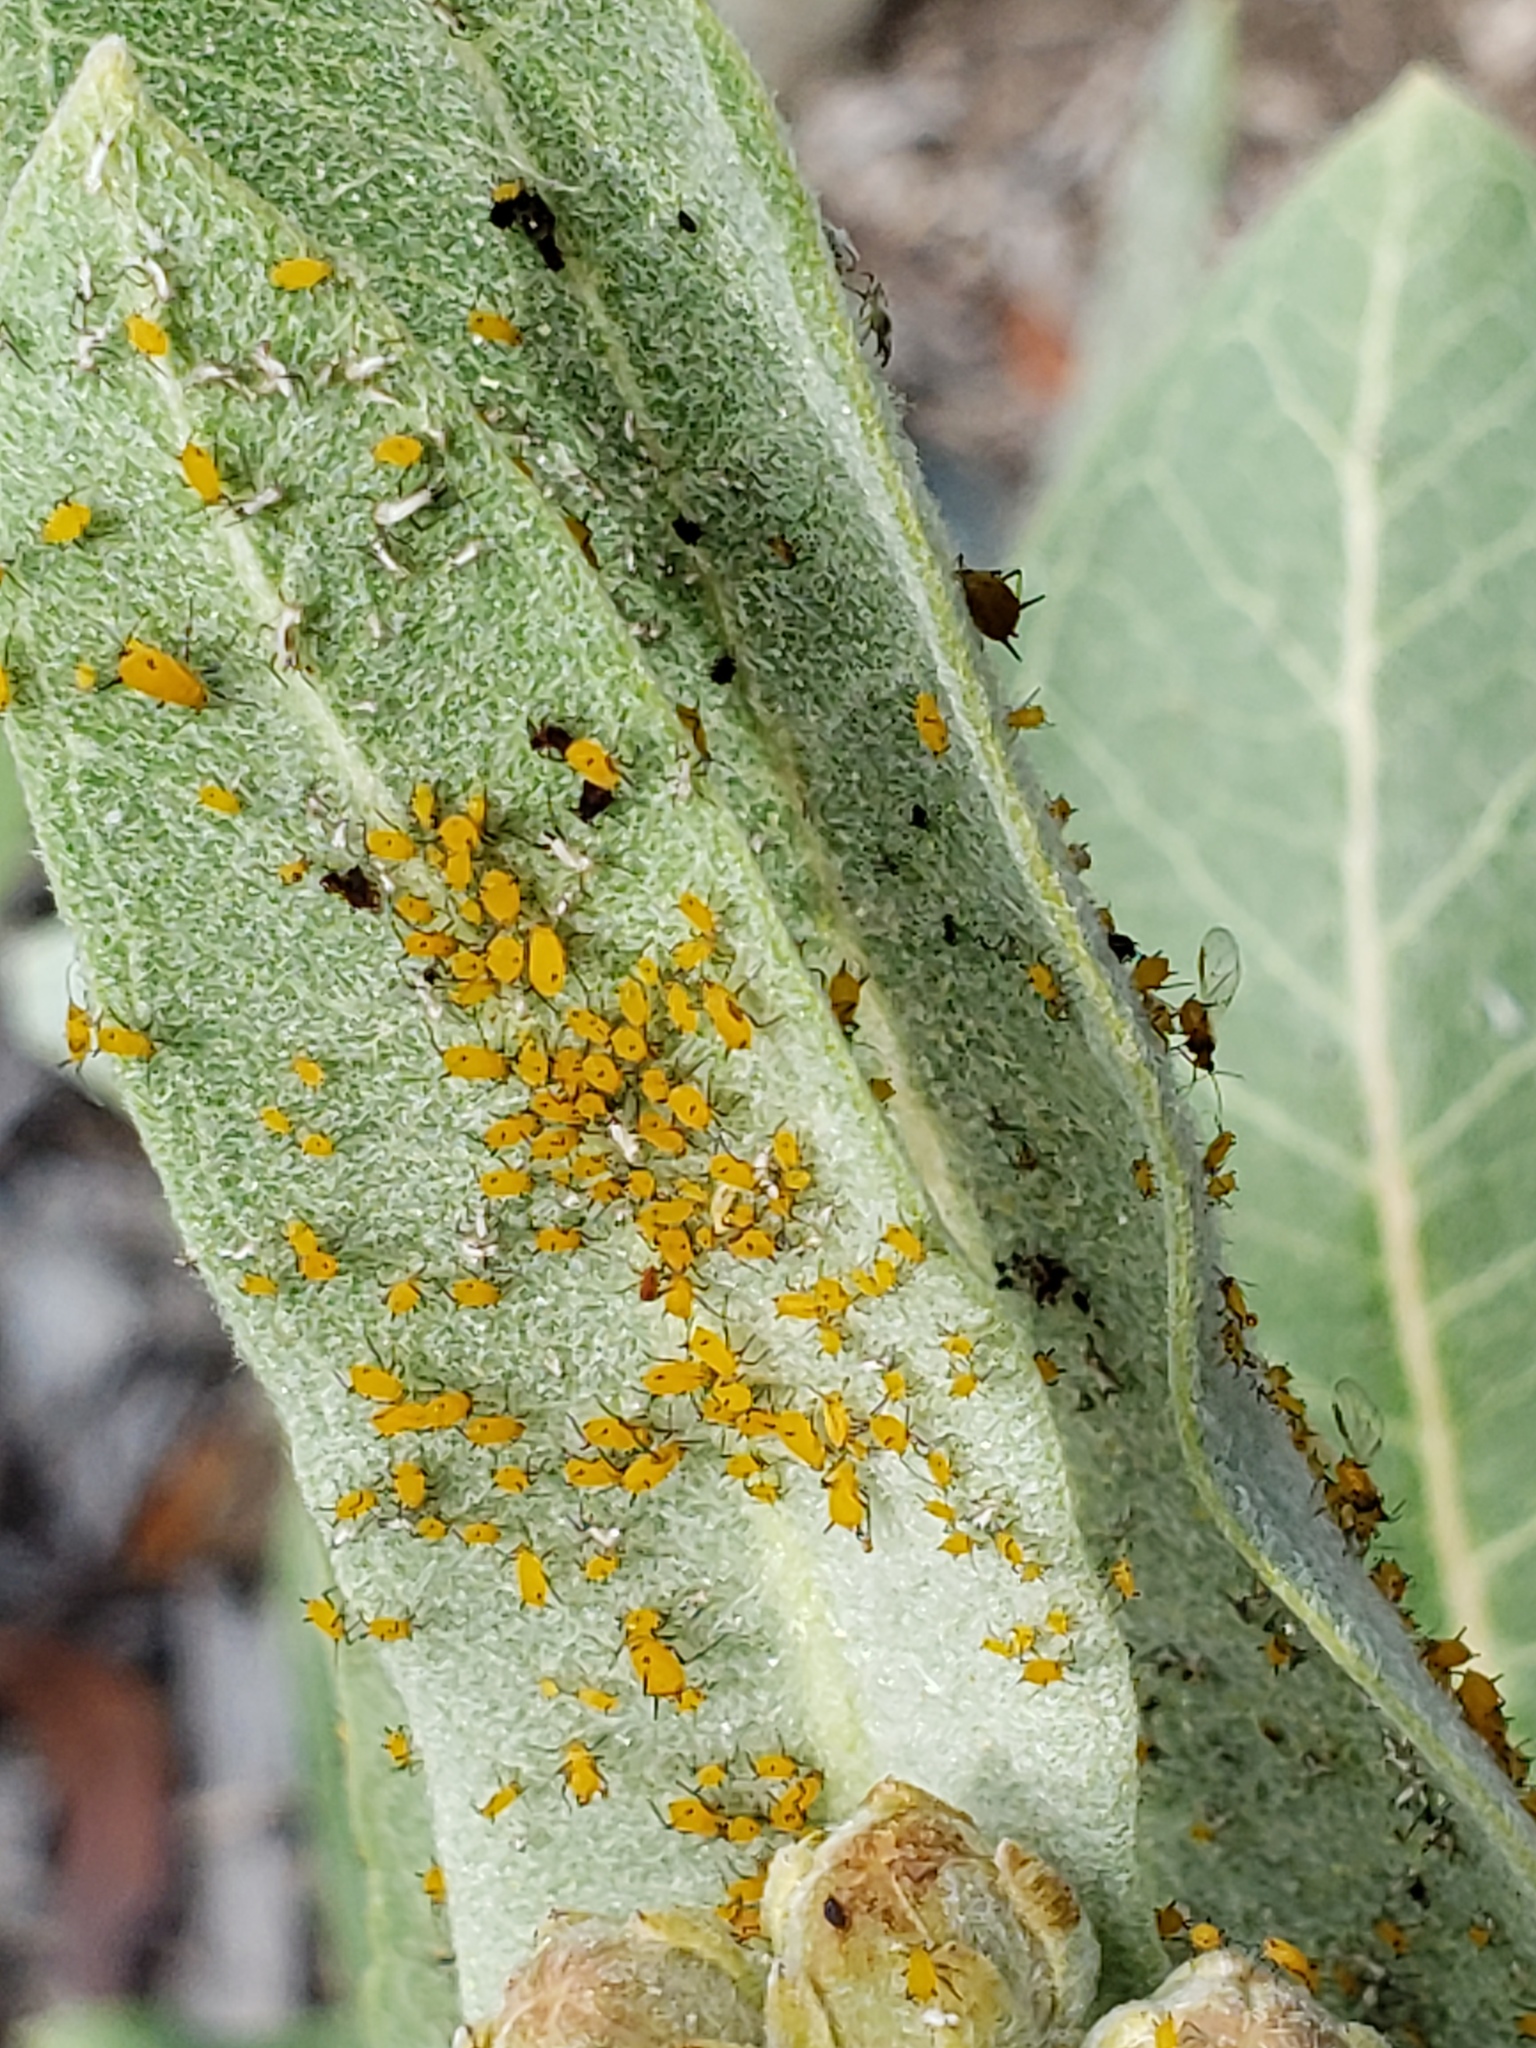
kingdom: Animalia
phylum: Arthropoda
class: Insecta
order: Hemiptera
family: Aphididae
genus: Aphis
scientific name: Aphis nerii
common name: Oleander aphid
